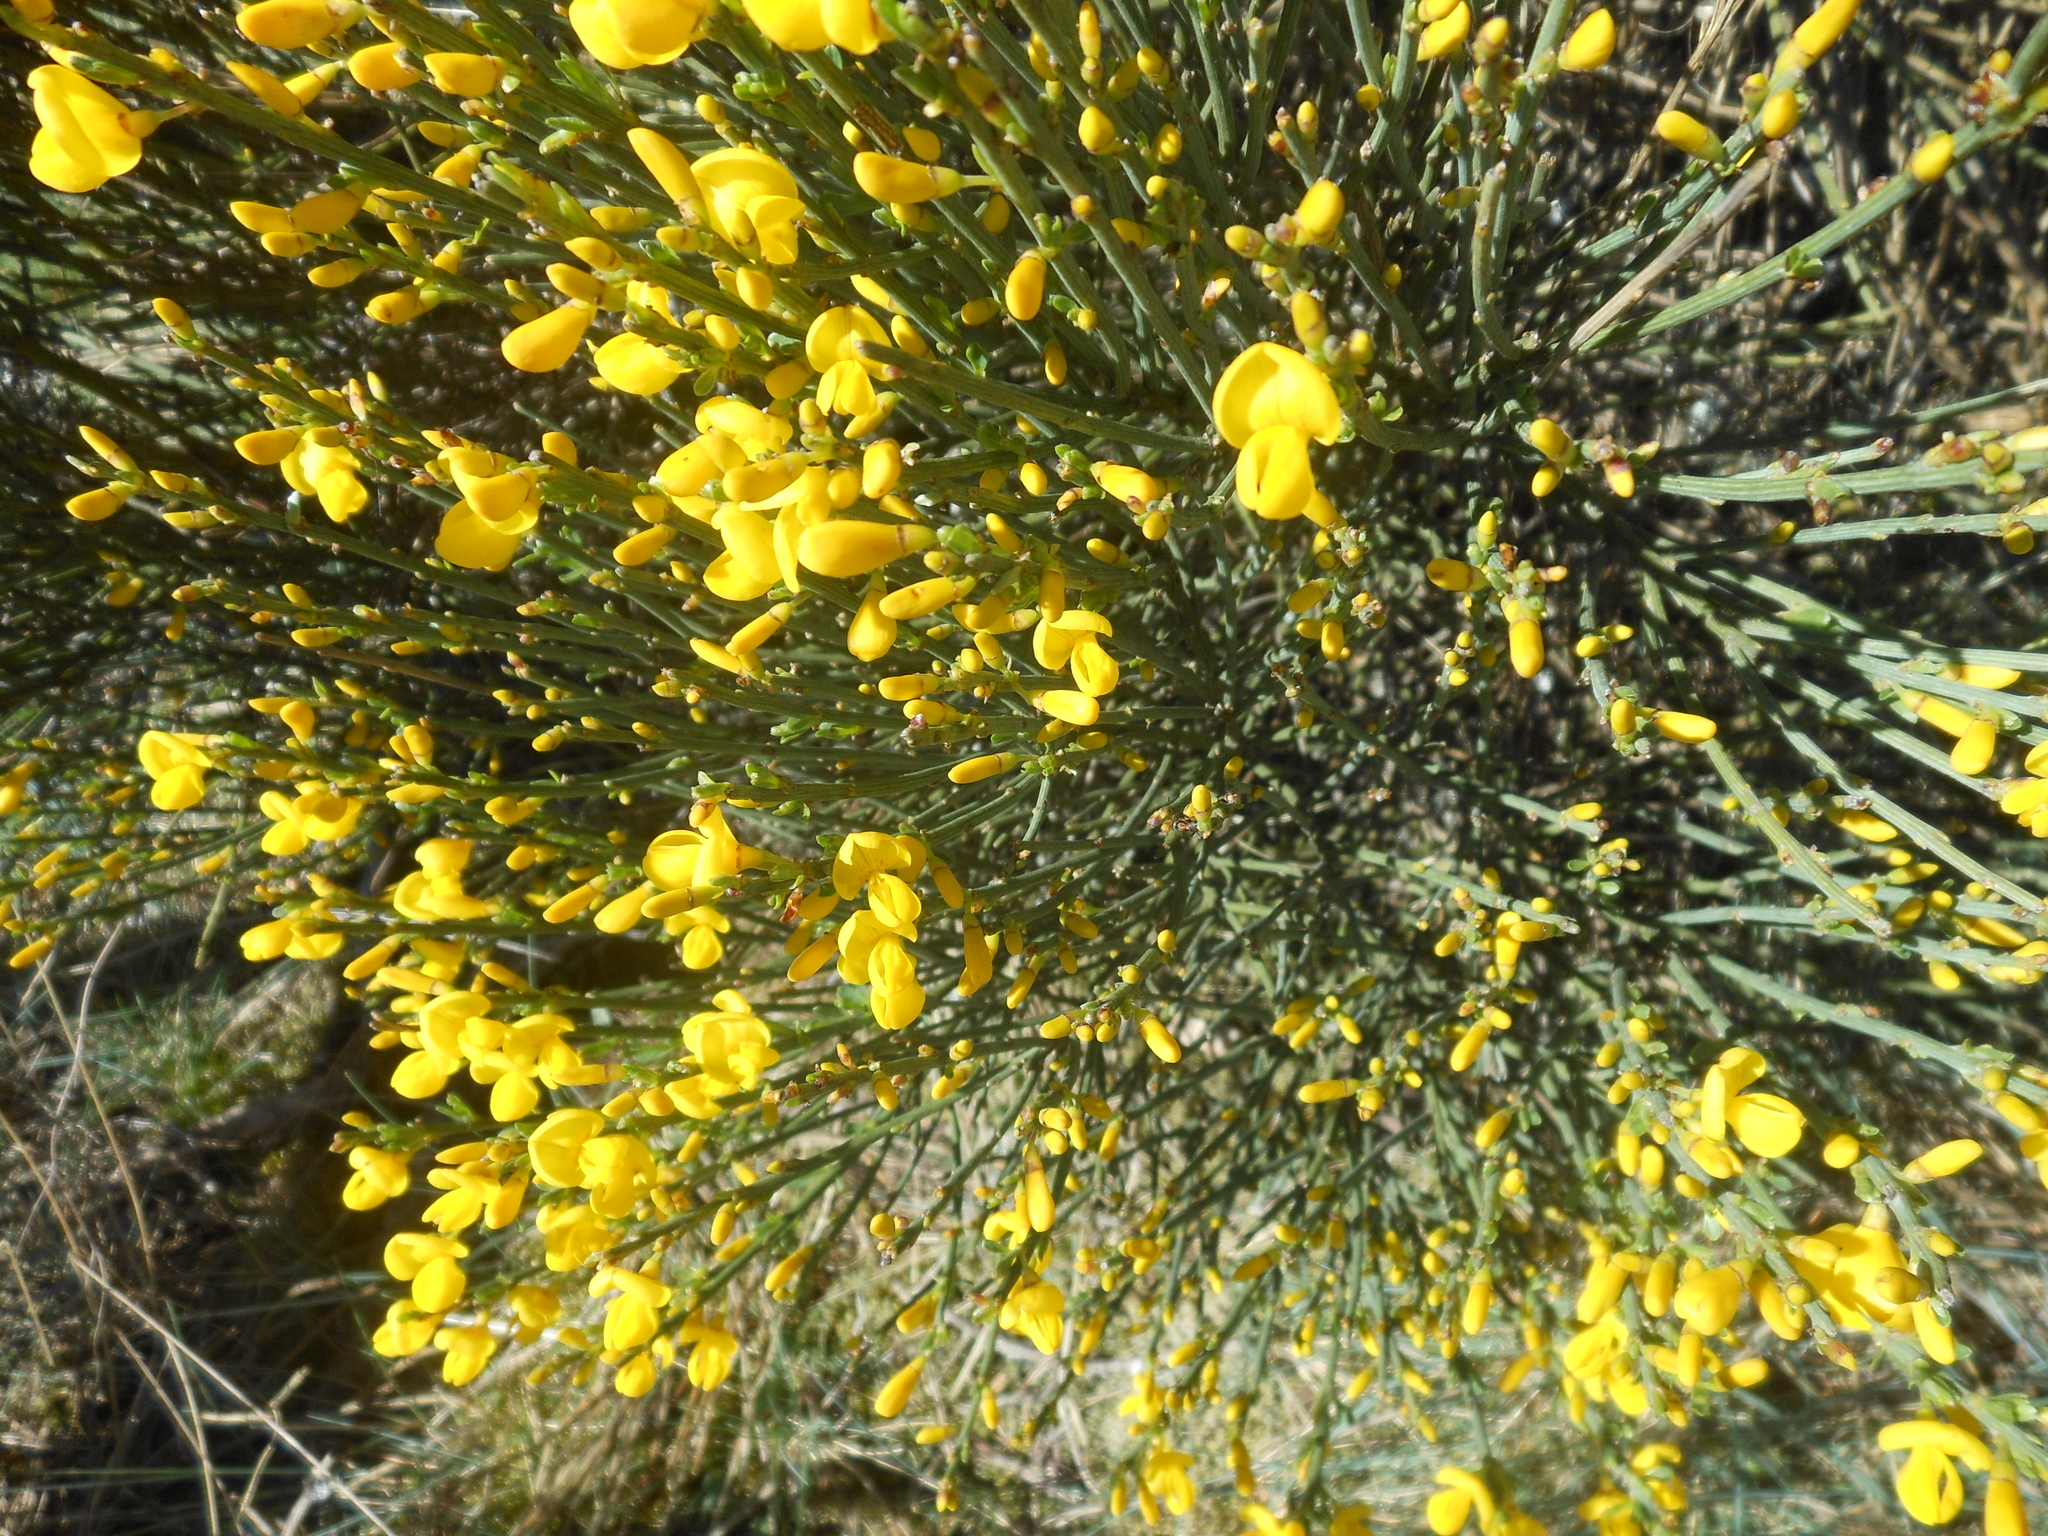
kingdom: Plantae
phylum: Tracheophyta
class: Magnoliopsida
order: Fabales
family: Fabaceae
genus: Cytisus
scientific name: Cytisus oromediterraneus
